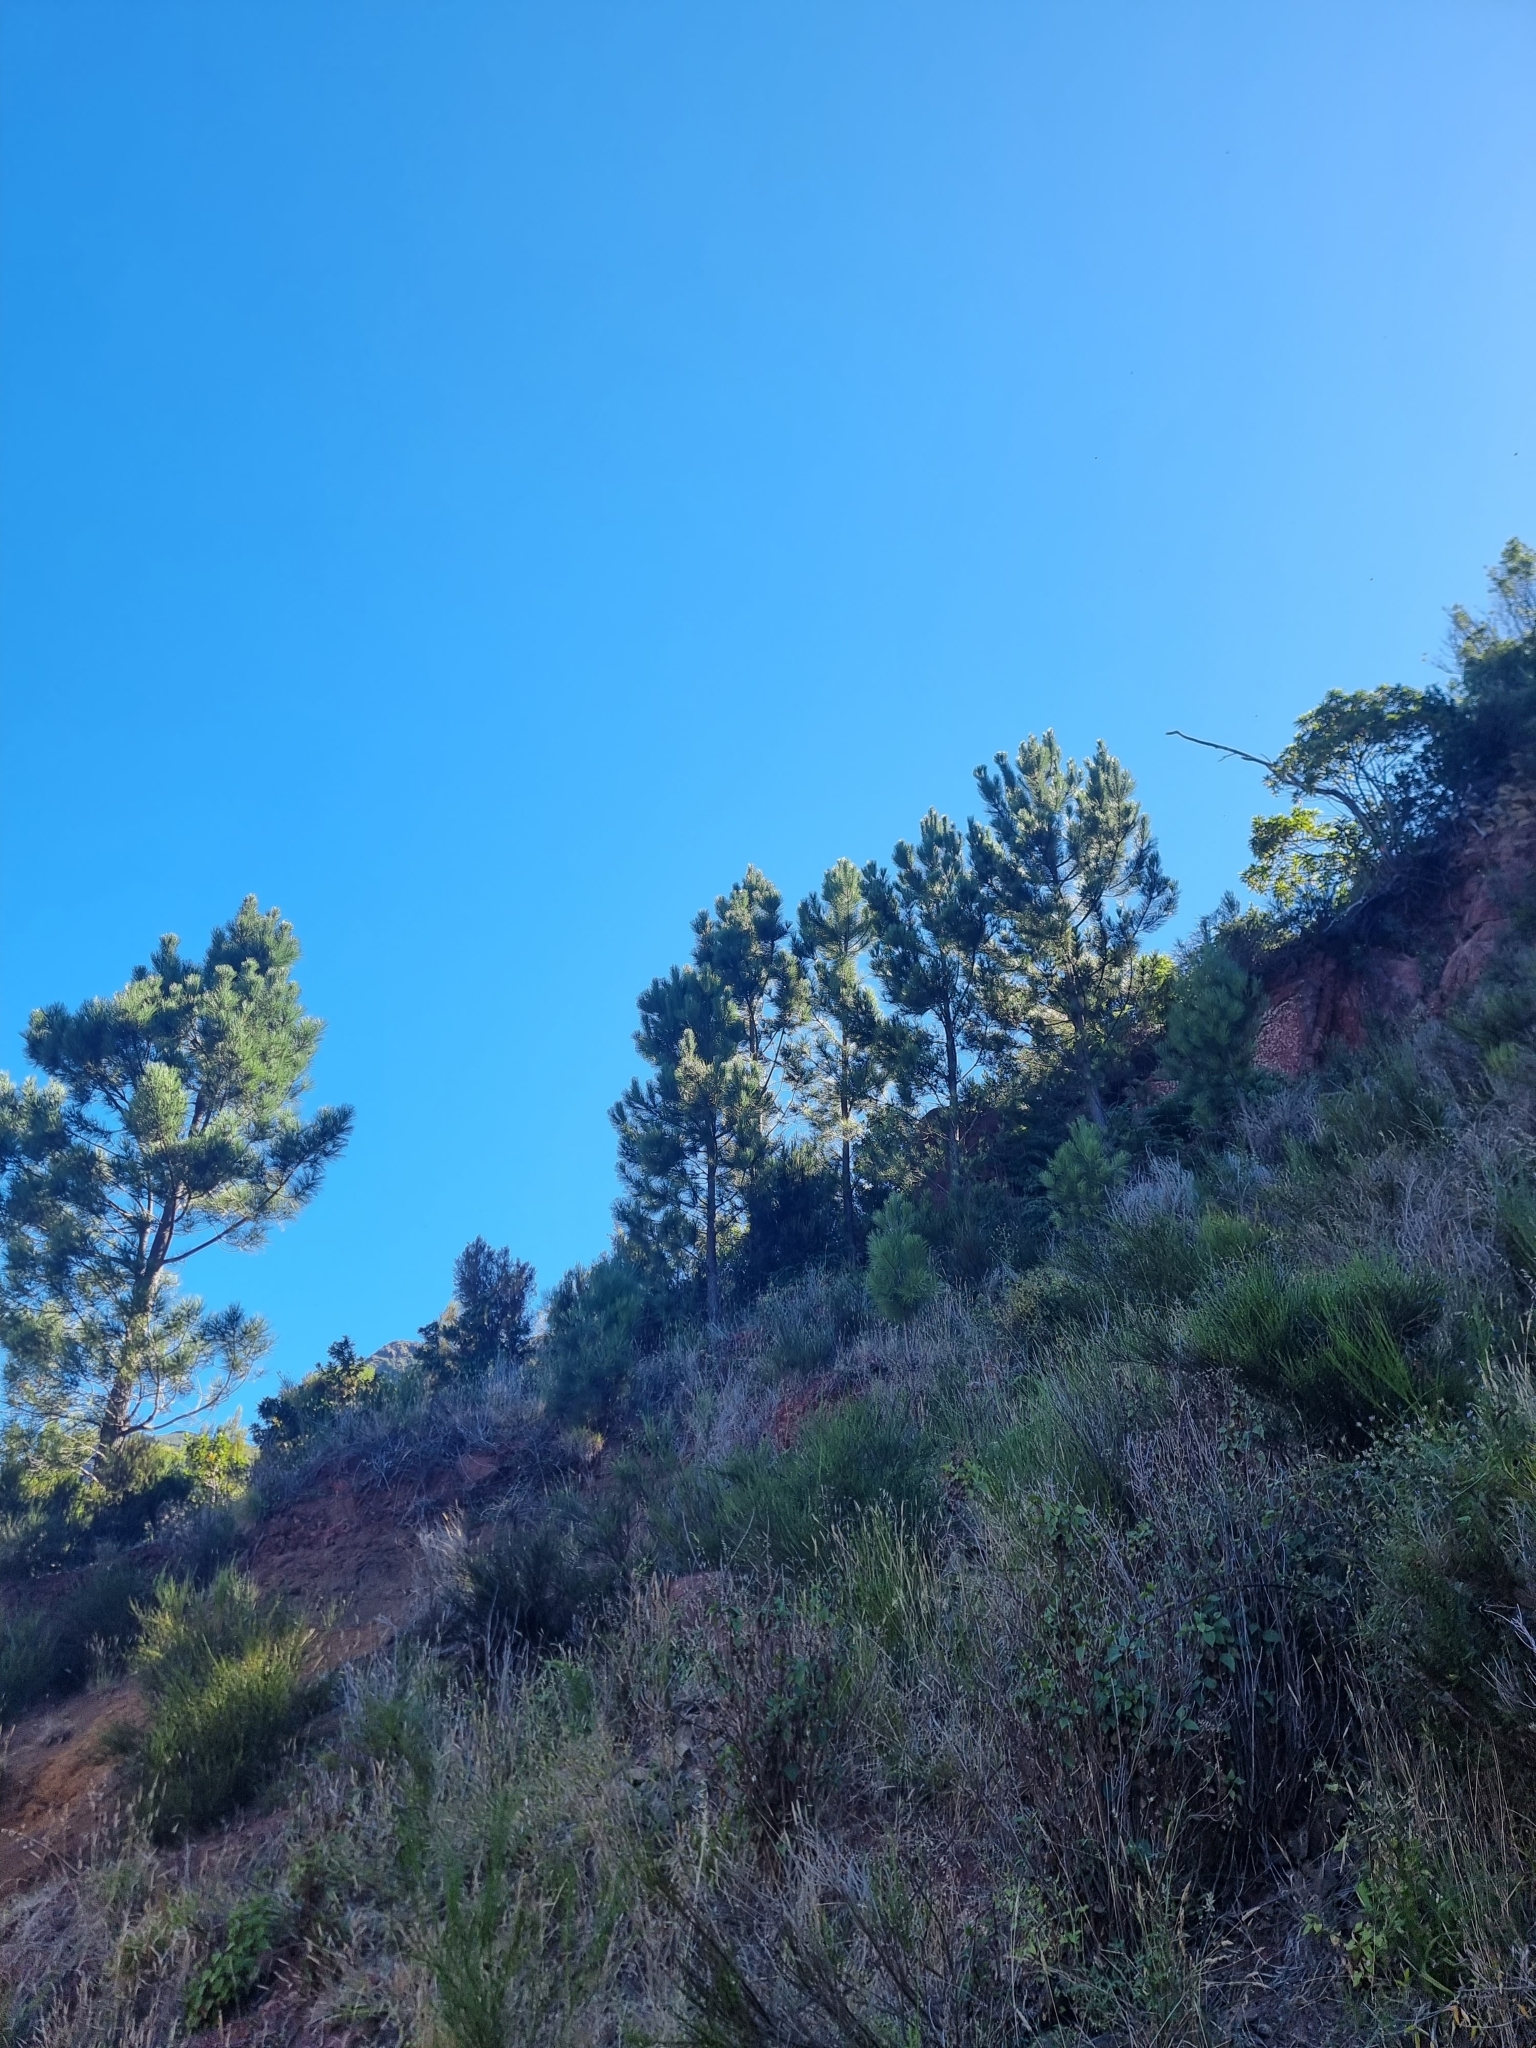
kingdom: Plantae
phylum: Tracheophyta
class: Pinopsida
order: Pinales
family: Pinaceae
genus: Pinus
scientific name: Pinus pinaster
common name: Maritime pine
